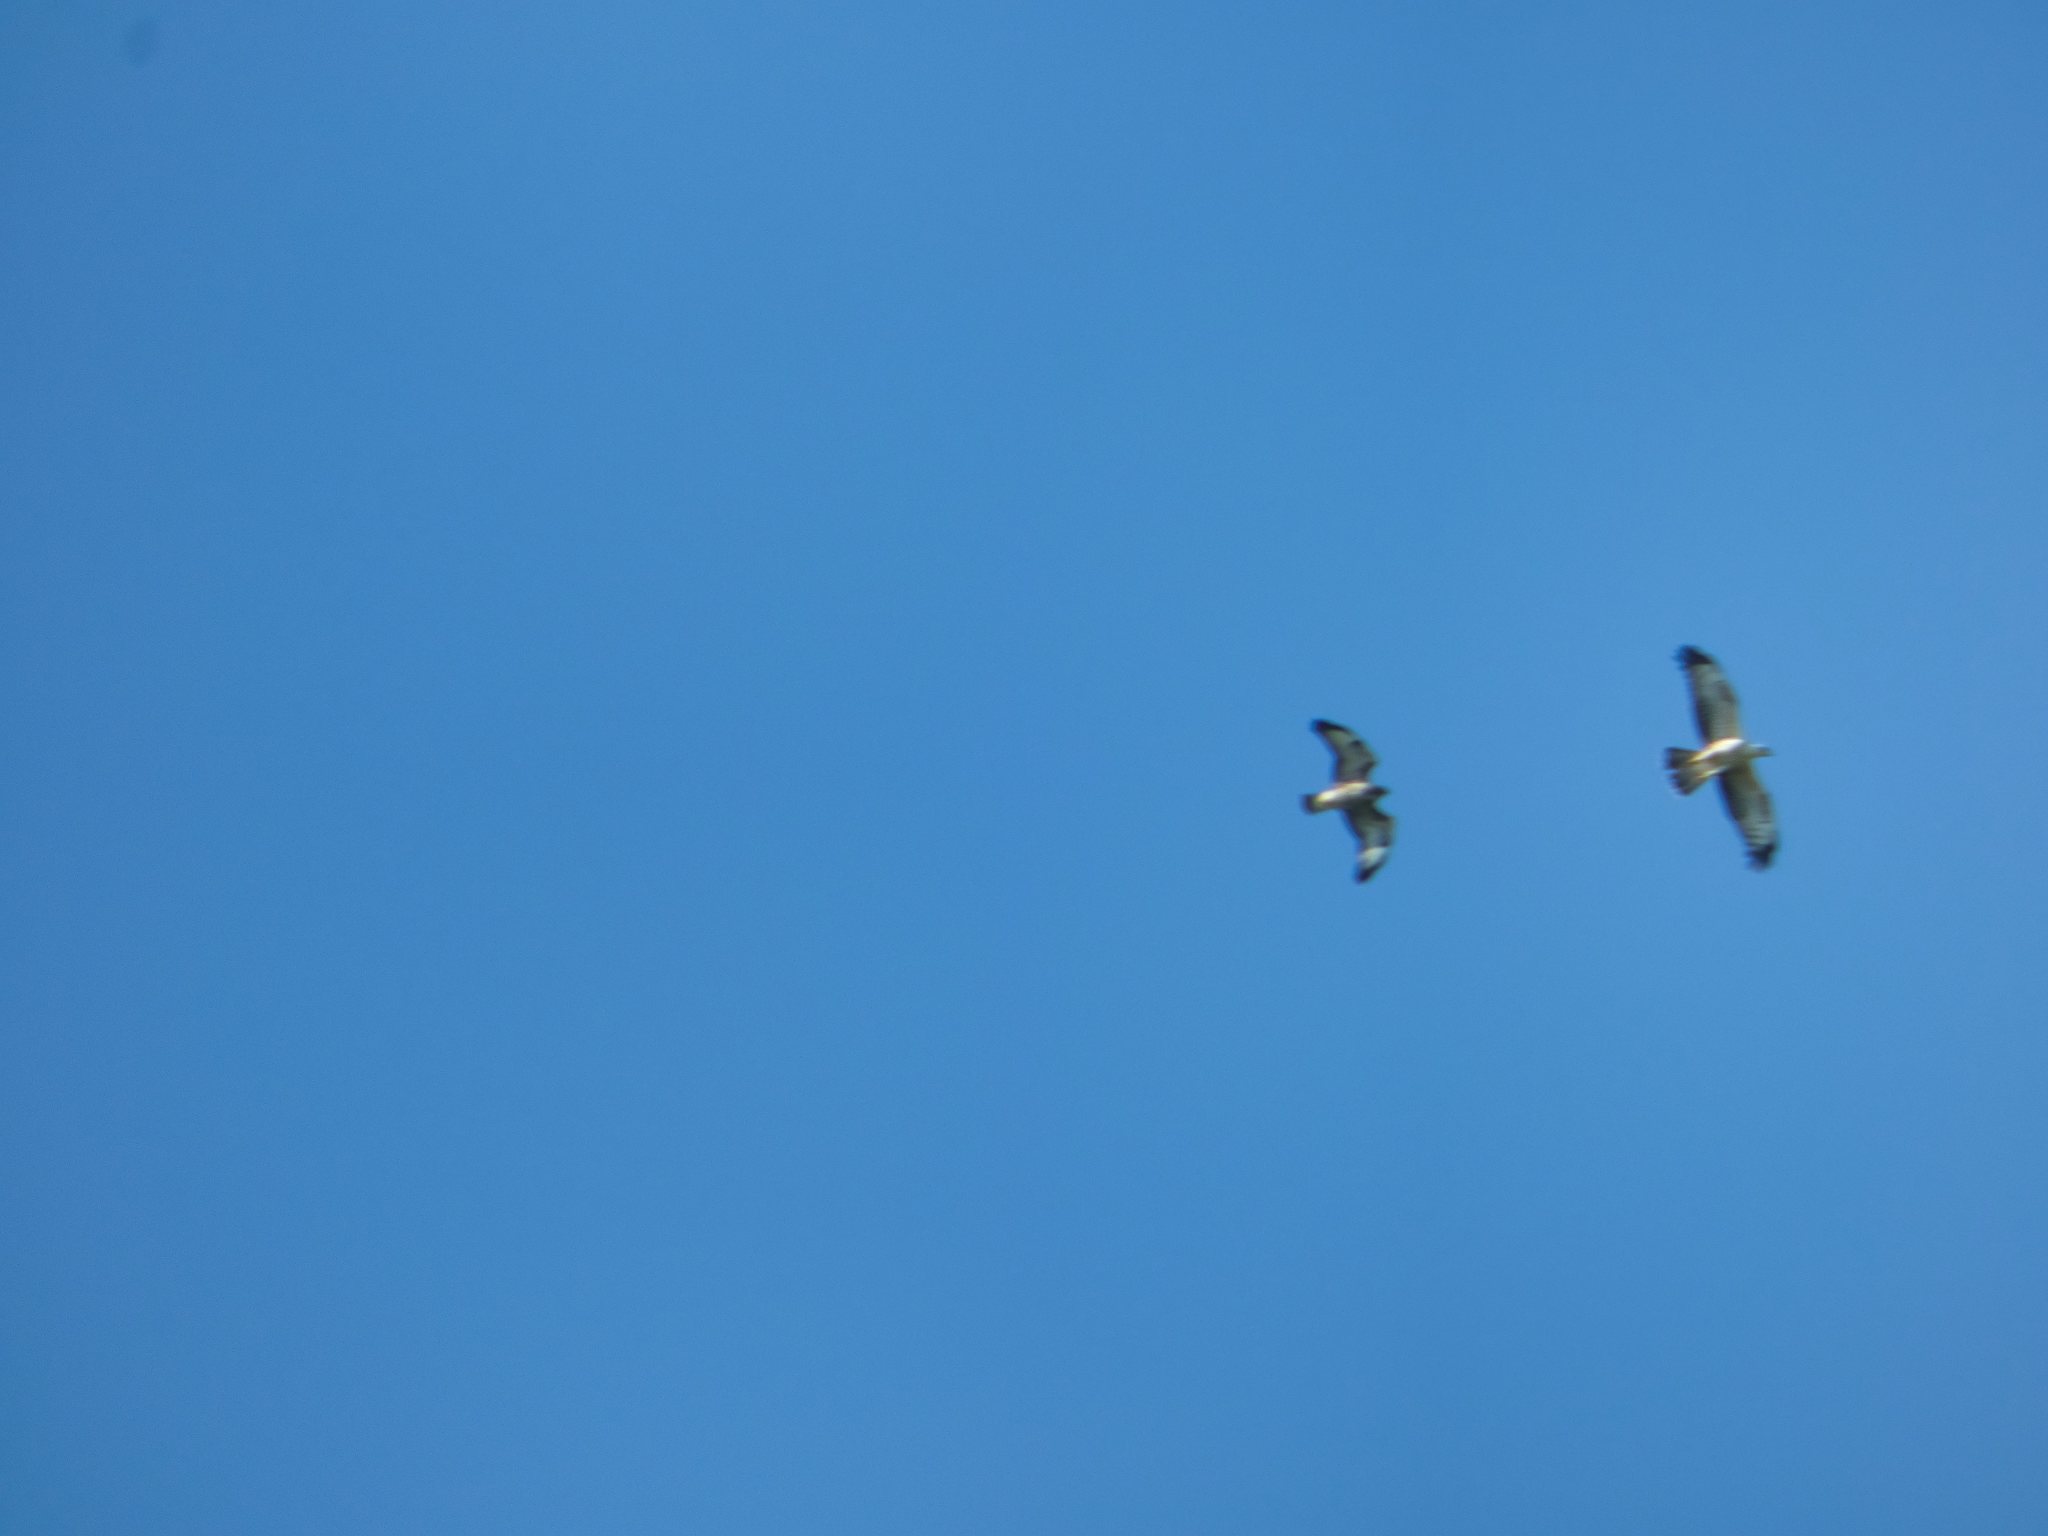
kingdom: Animalia
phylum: Chordata
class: Aves
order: Accipitriformes
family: Accipitridae
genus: Buteo
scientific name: Buteo buteo
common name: Common buzzard
